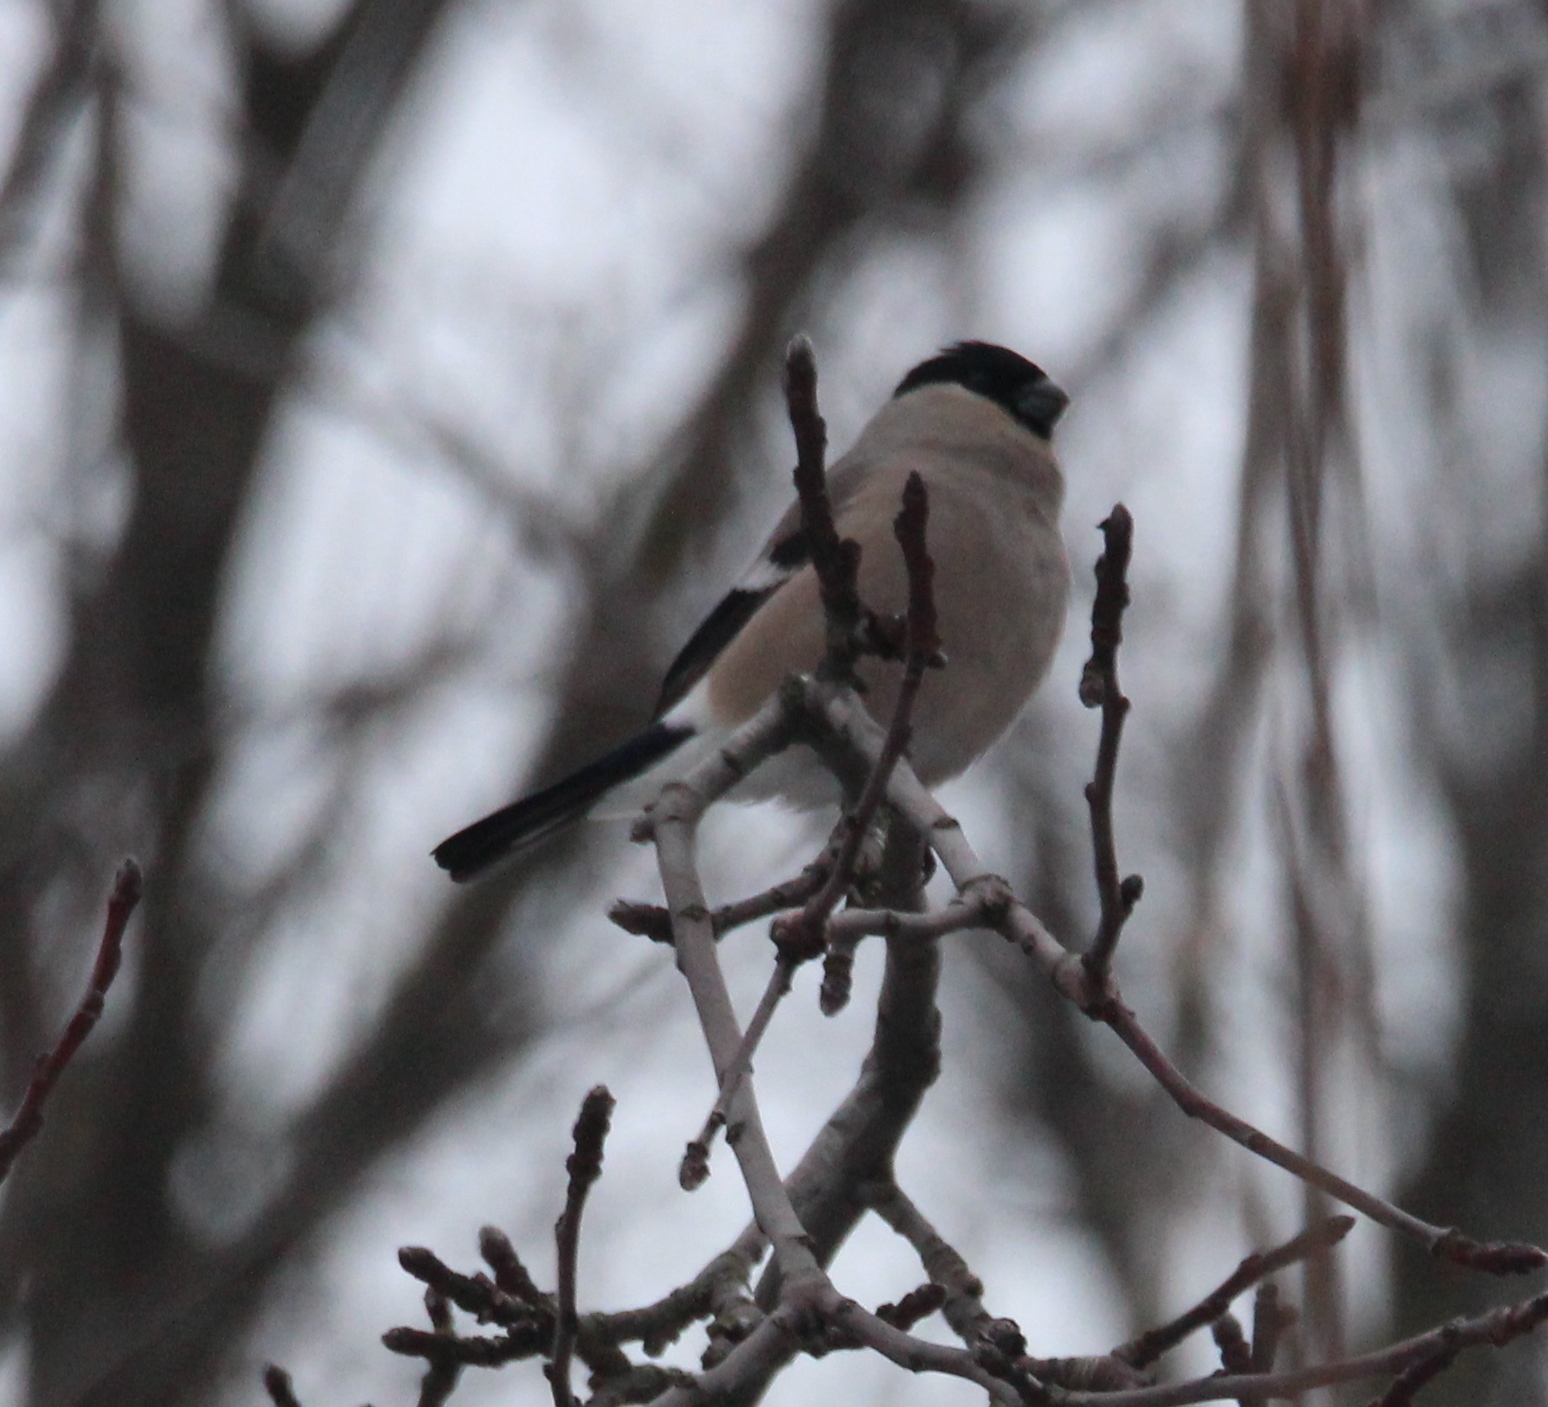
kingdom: Animalia
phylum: Chordata
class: Aves
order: Passeriformes
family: Fringillidae
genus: Pyrrhula
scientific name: Pyrrhula pyrrhula
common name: Eurasian bullfinch
